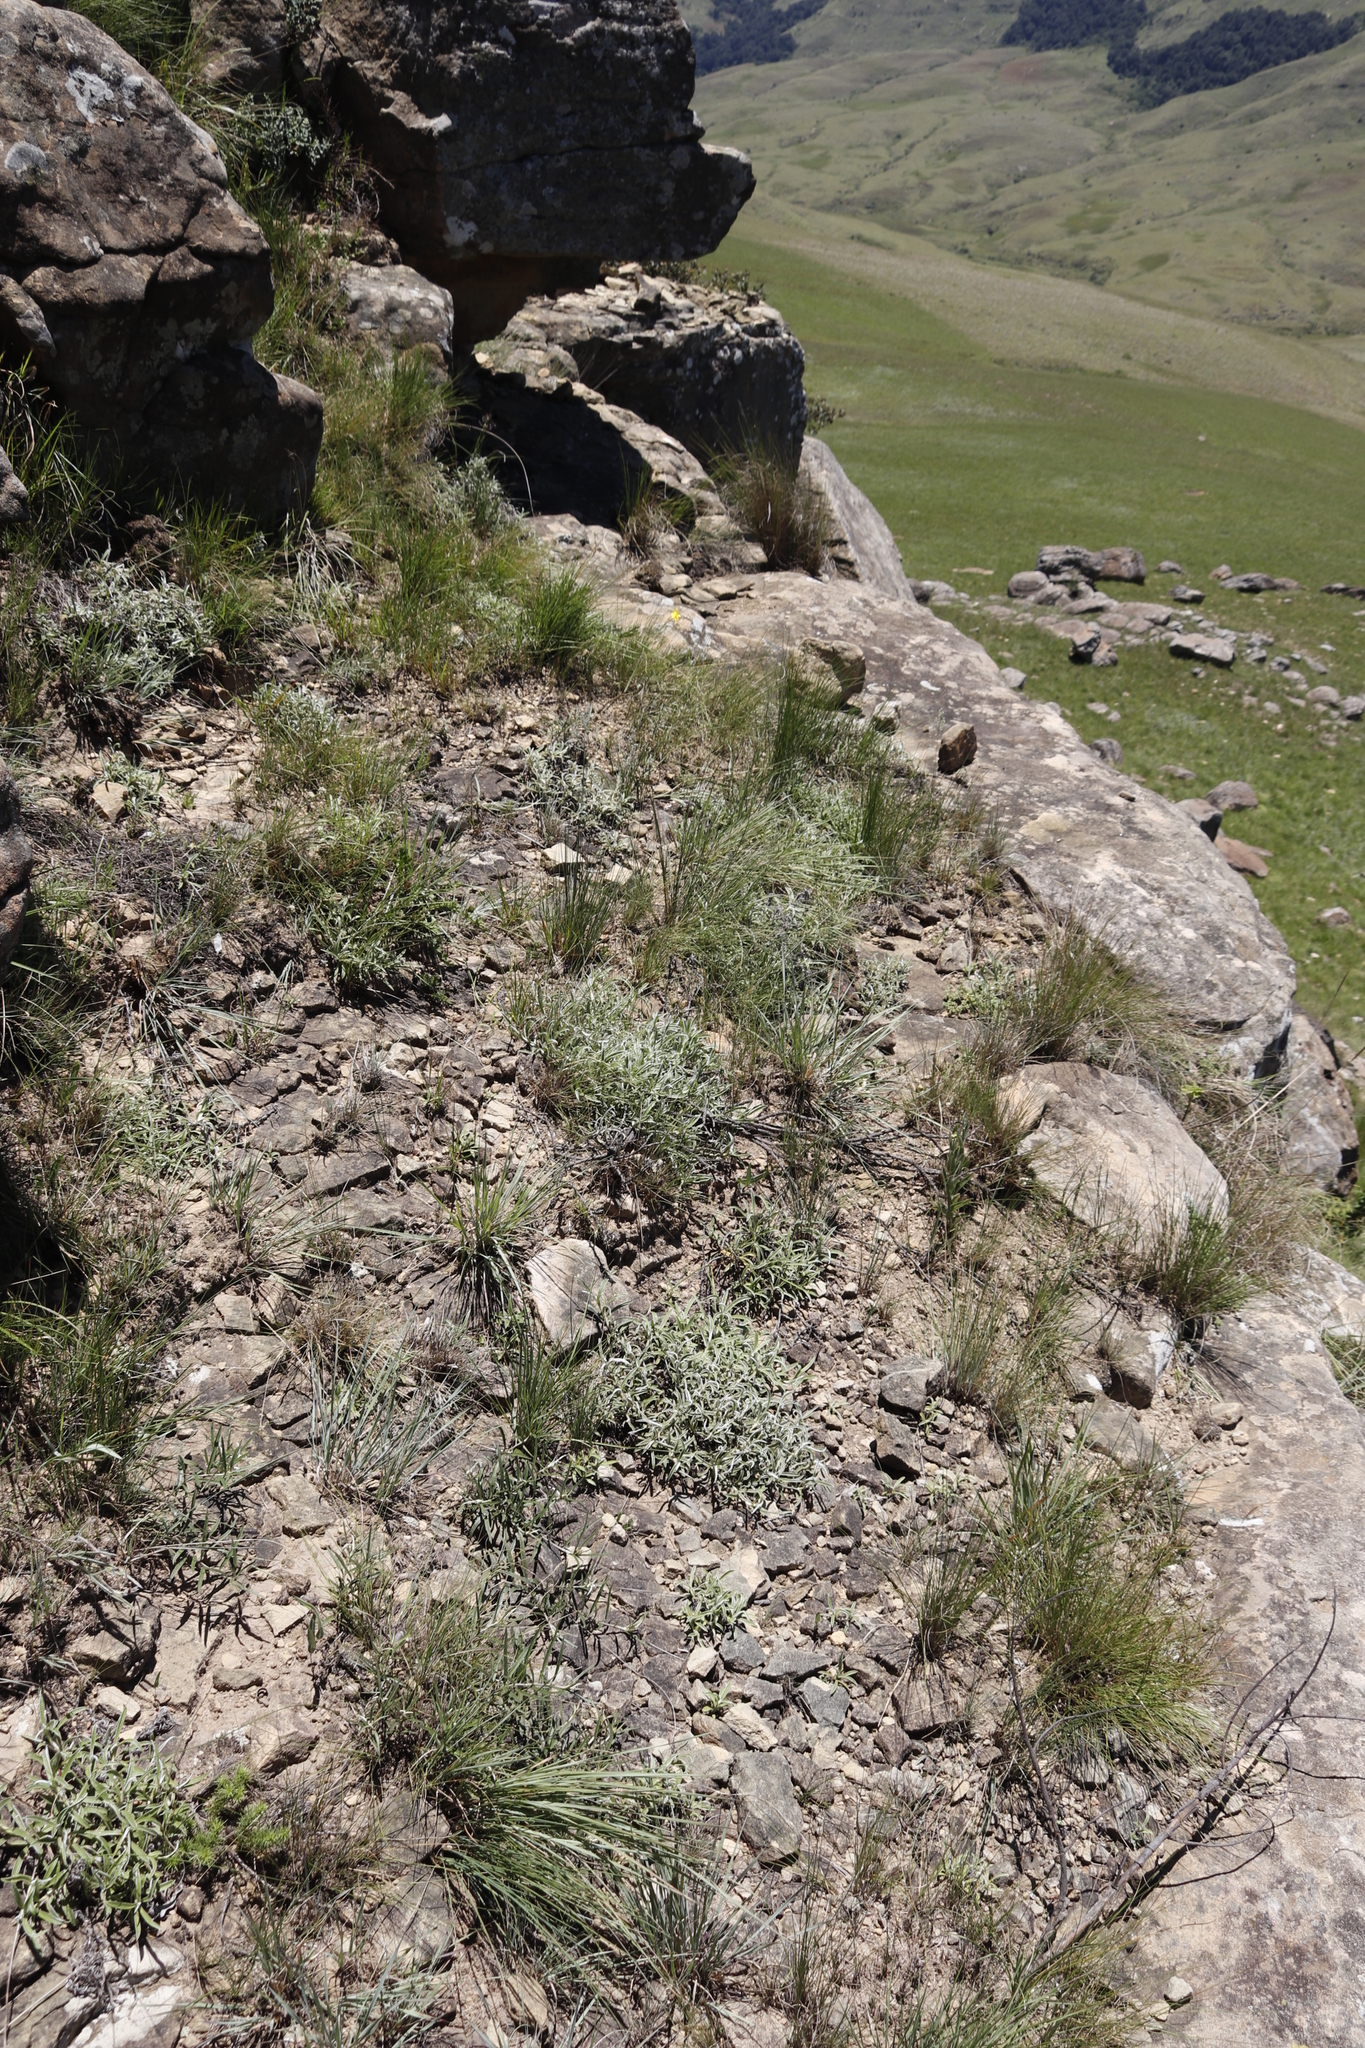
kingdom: Plantae
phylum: Tracheophyta
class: Magnoliopsida
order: Asterales
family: Asteraceae
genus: Helichrysum
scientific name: Helichrysum chionosphaerum
